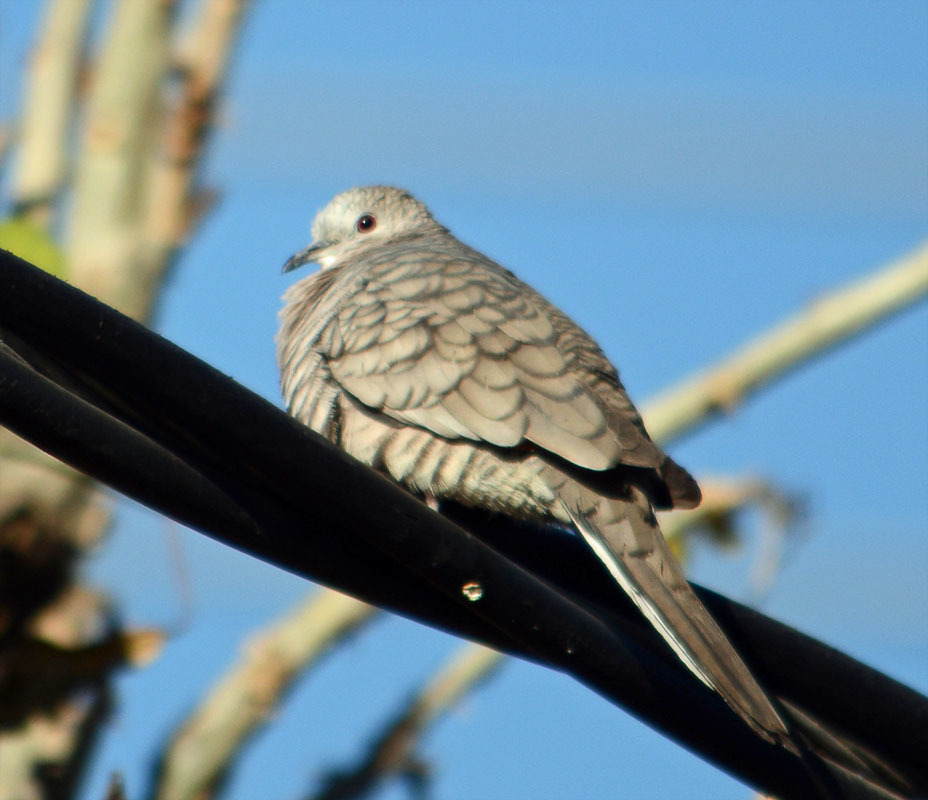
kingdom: Animalia
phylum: Chordata
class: Aves
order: Columbiformes
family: Columbidae
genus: Columbina
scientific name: Columbina inca
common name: Inca dove
